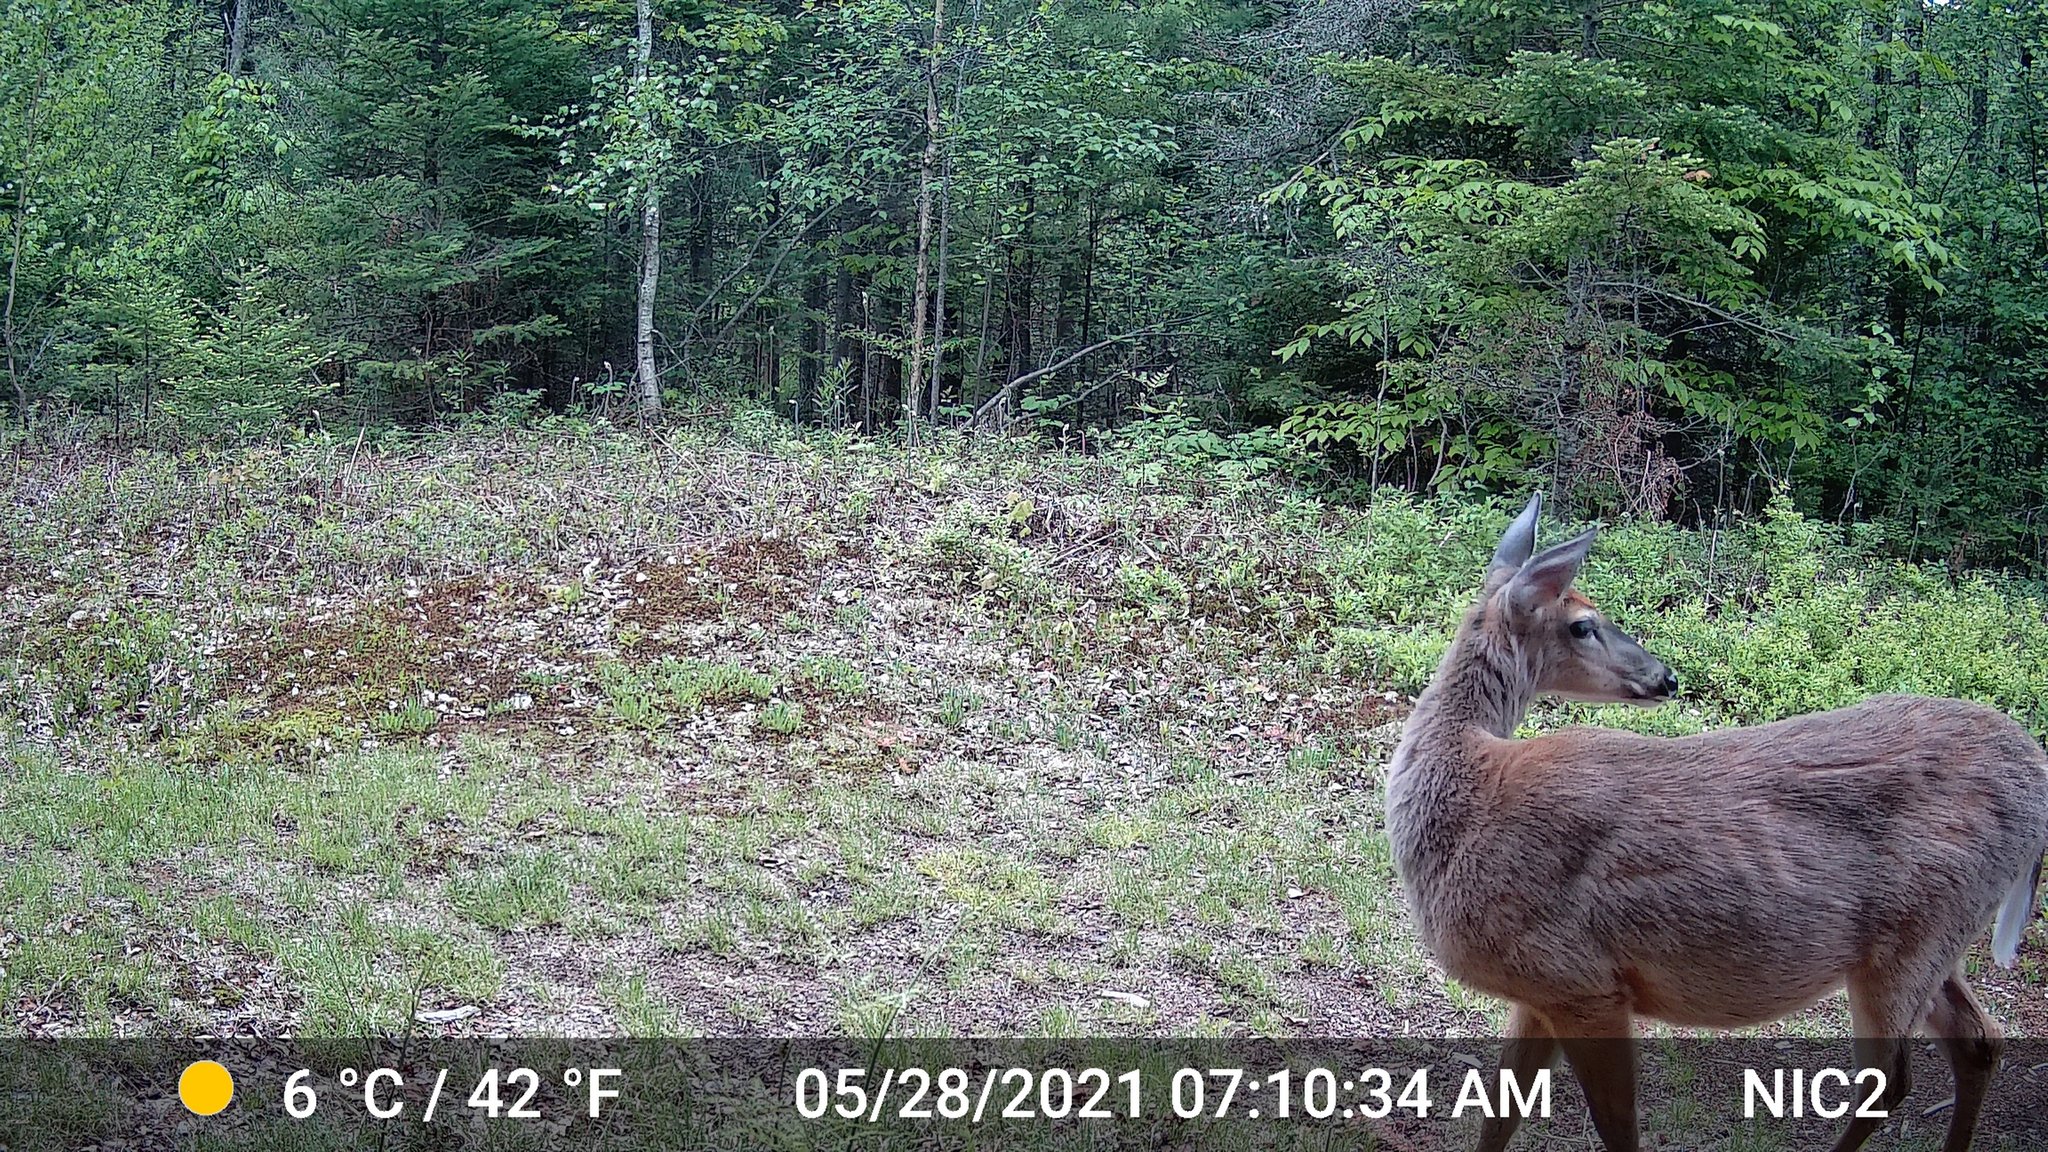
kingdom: Animalia
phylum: Chordata
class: Mammalia
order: Artiodactyla
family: Cervidae
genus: Odocoileus
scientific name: Odocoileus virginianus
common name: White-tailed deer
